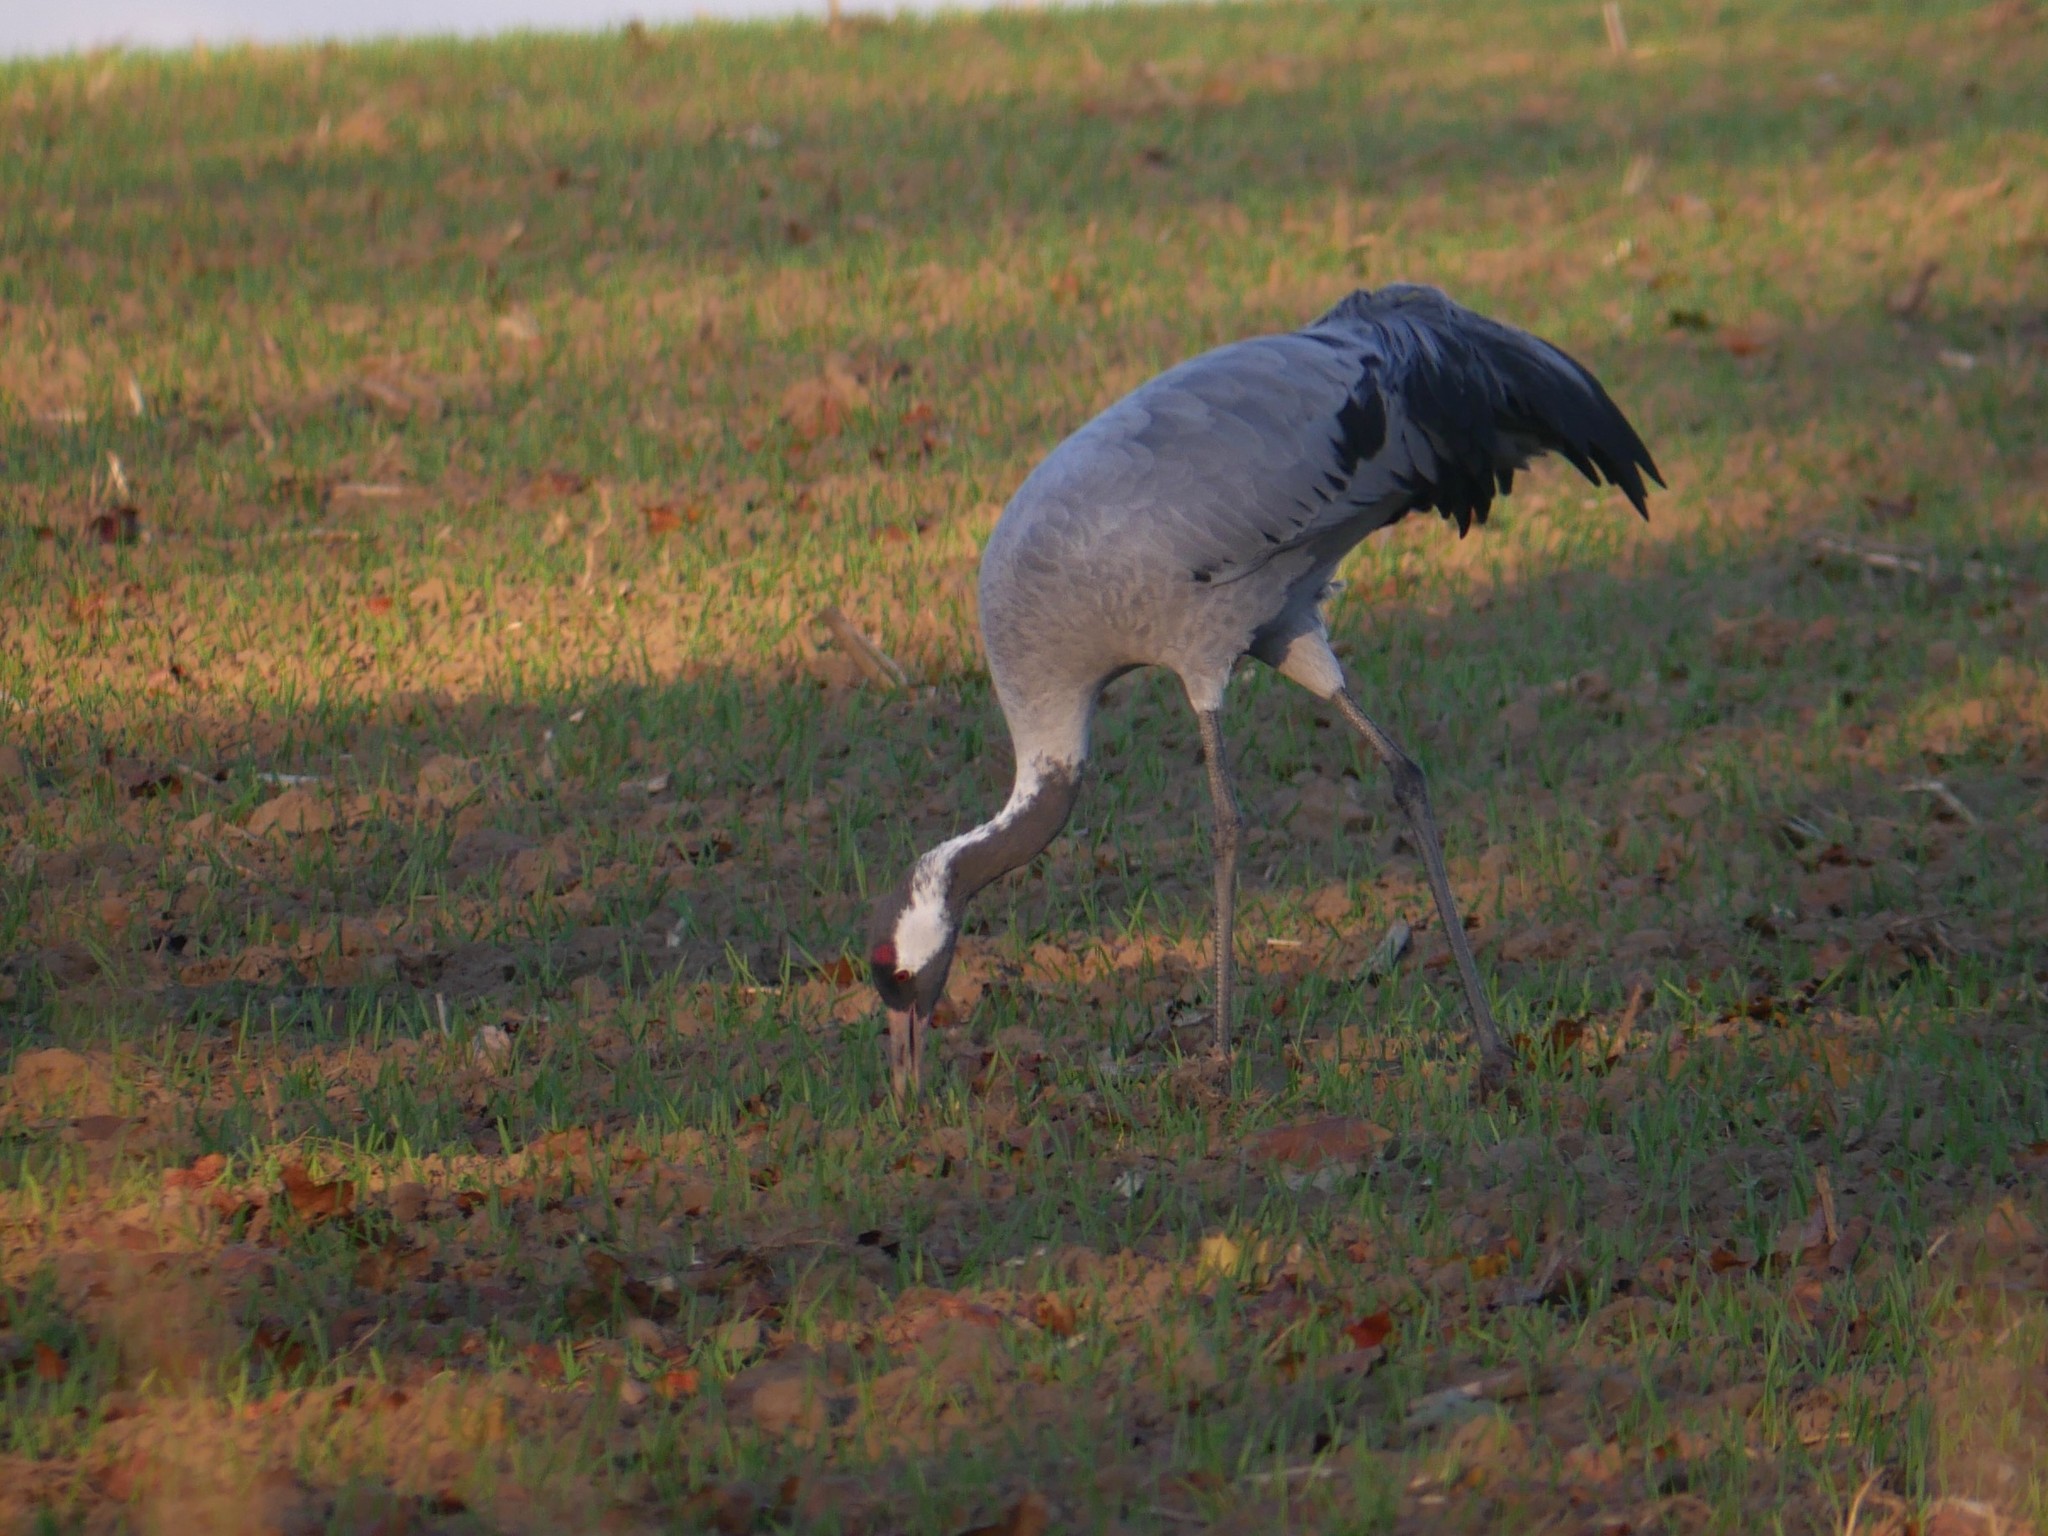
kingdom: Animalia
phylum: Chordata
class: Aves
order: Gruiformes
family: Gruidae
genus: Grus
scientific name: Grus grus
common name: Common crane
